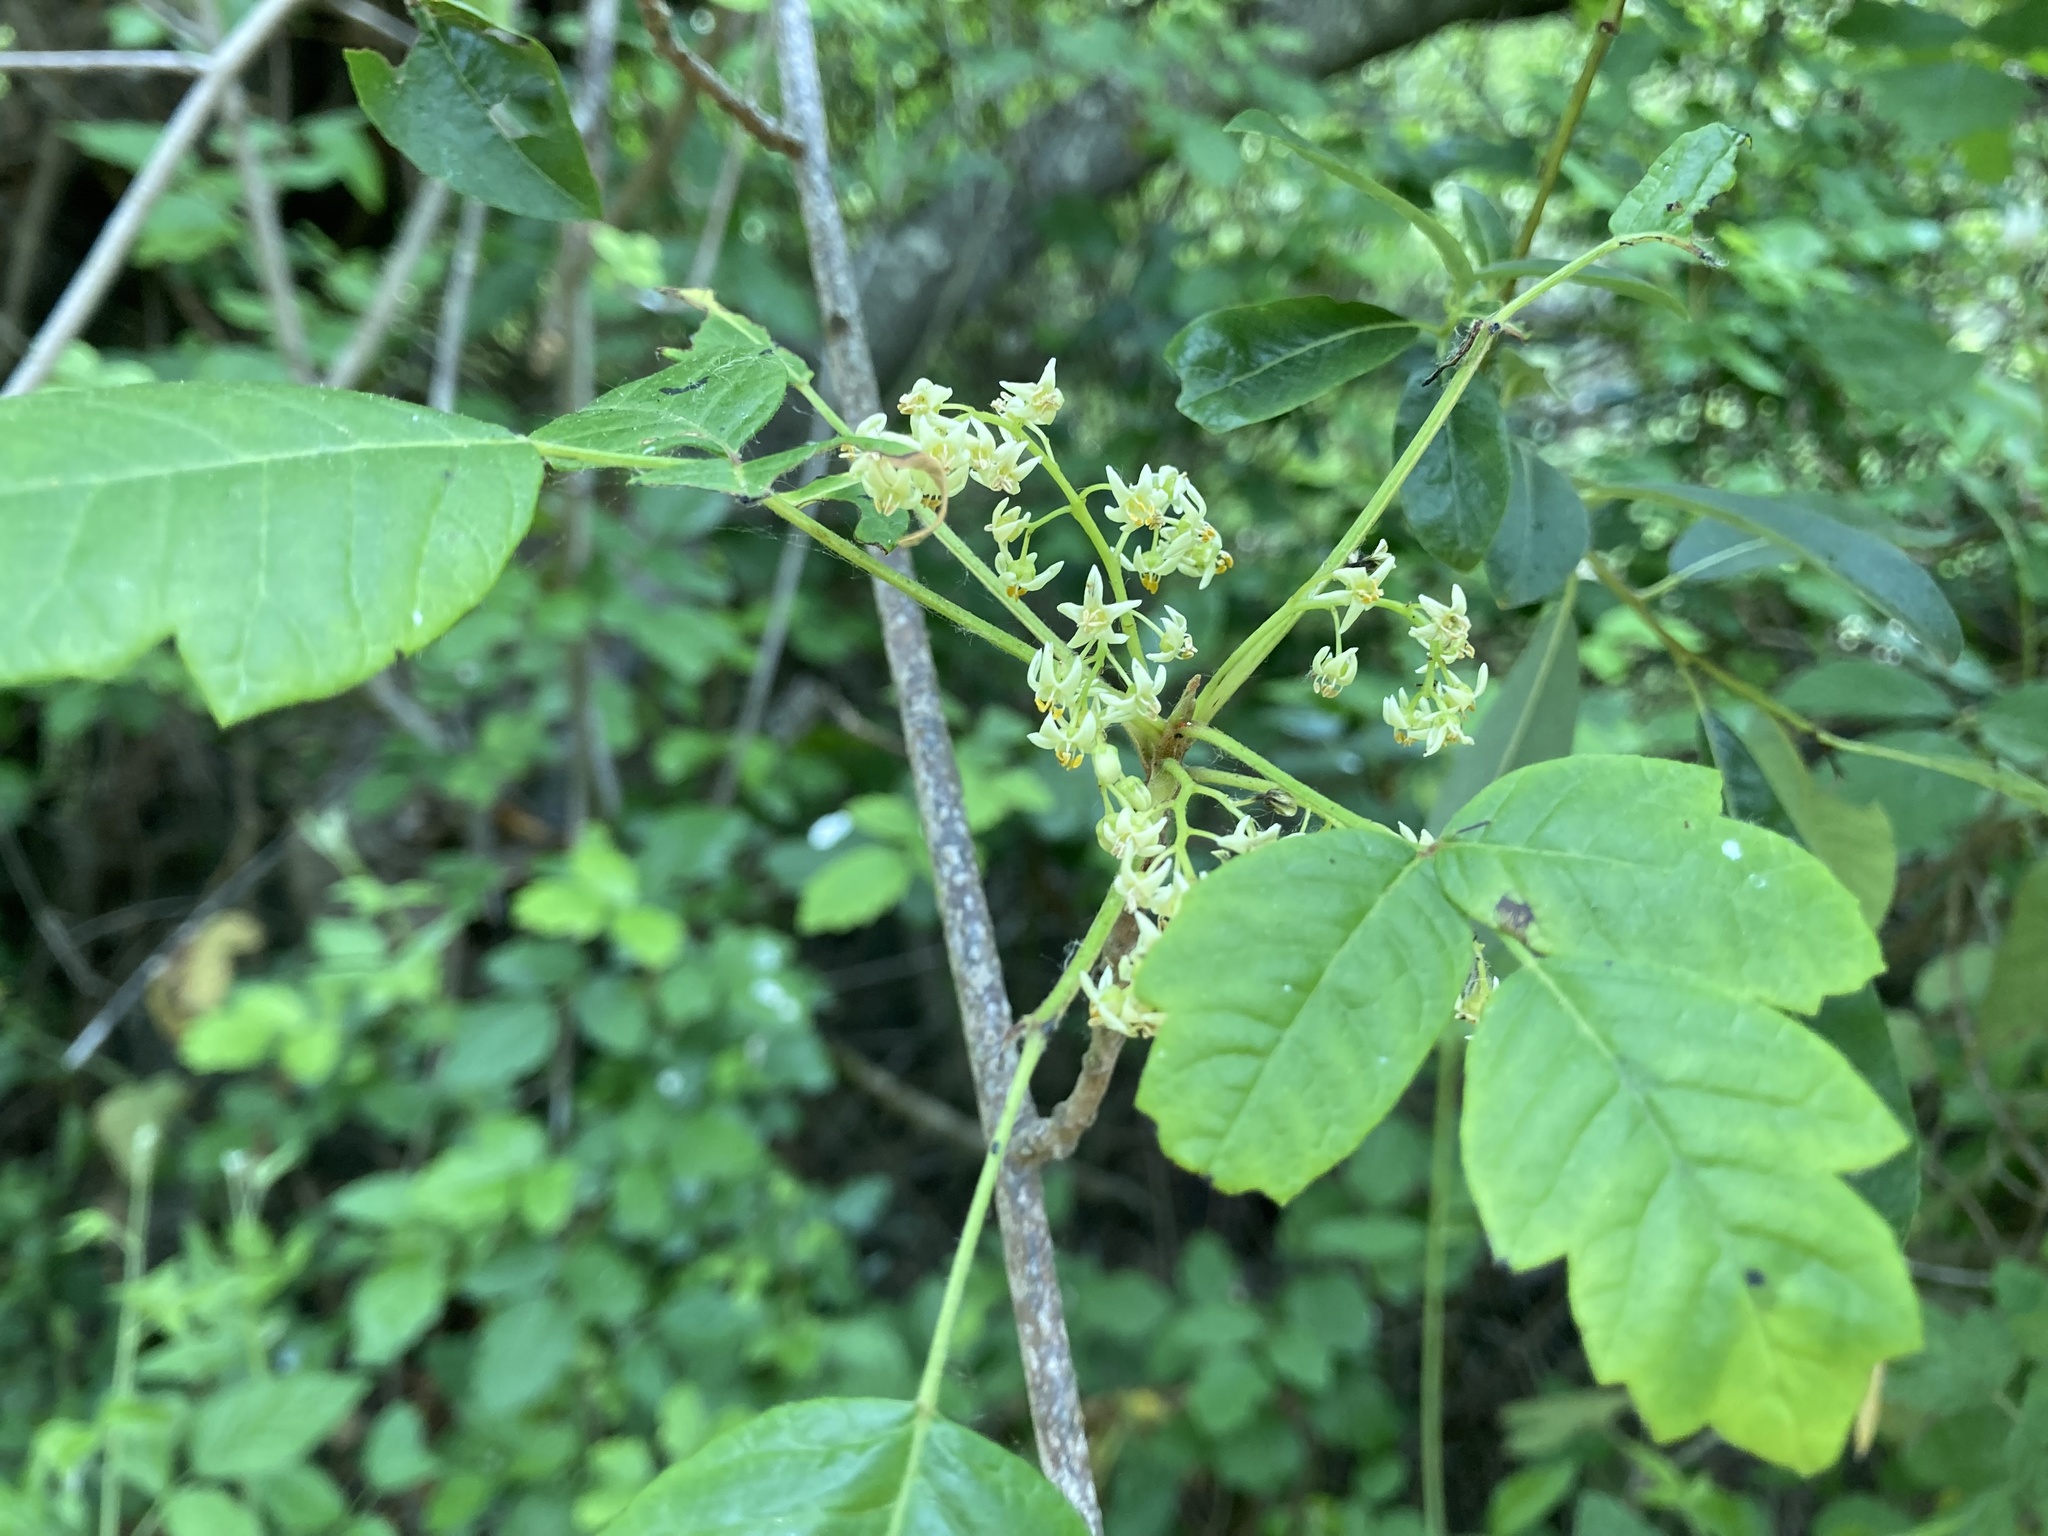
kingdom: Plantae
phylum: Tracheophyta
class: Magnoliopsida
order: Sapindales
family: Anacardiaceae
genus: Toxicodendron
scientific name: Toxicodendron diversilobum
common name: Pacific poison-oak
